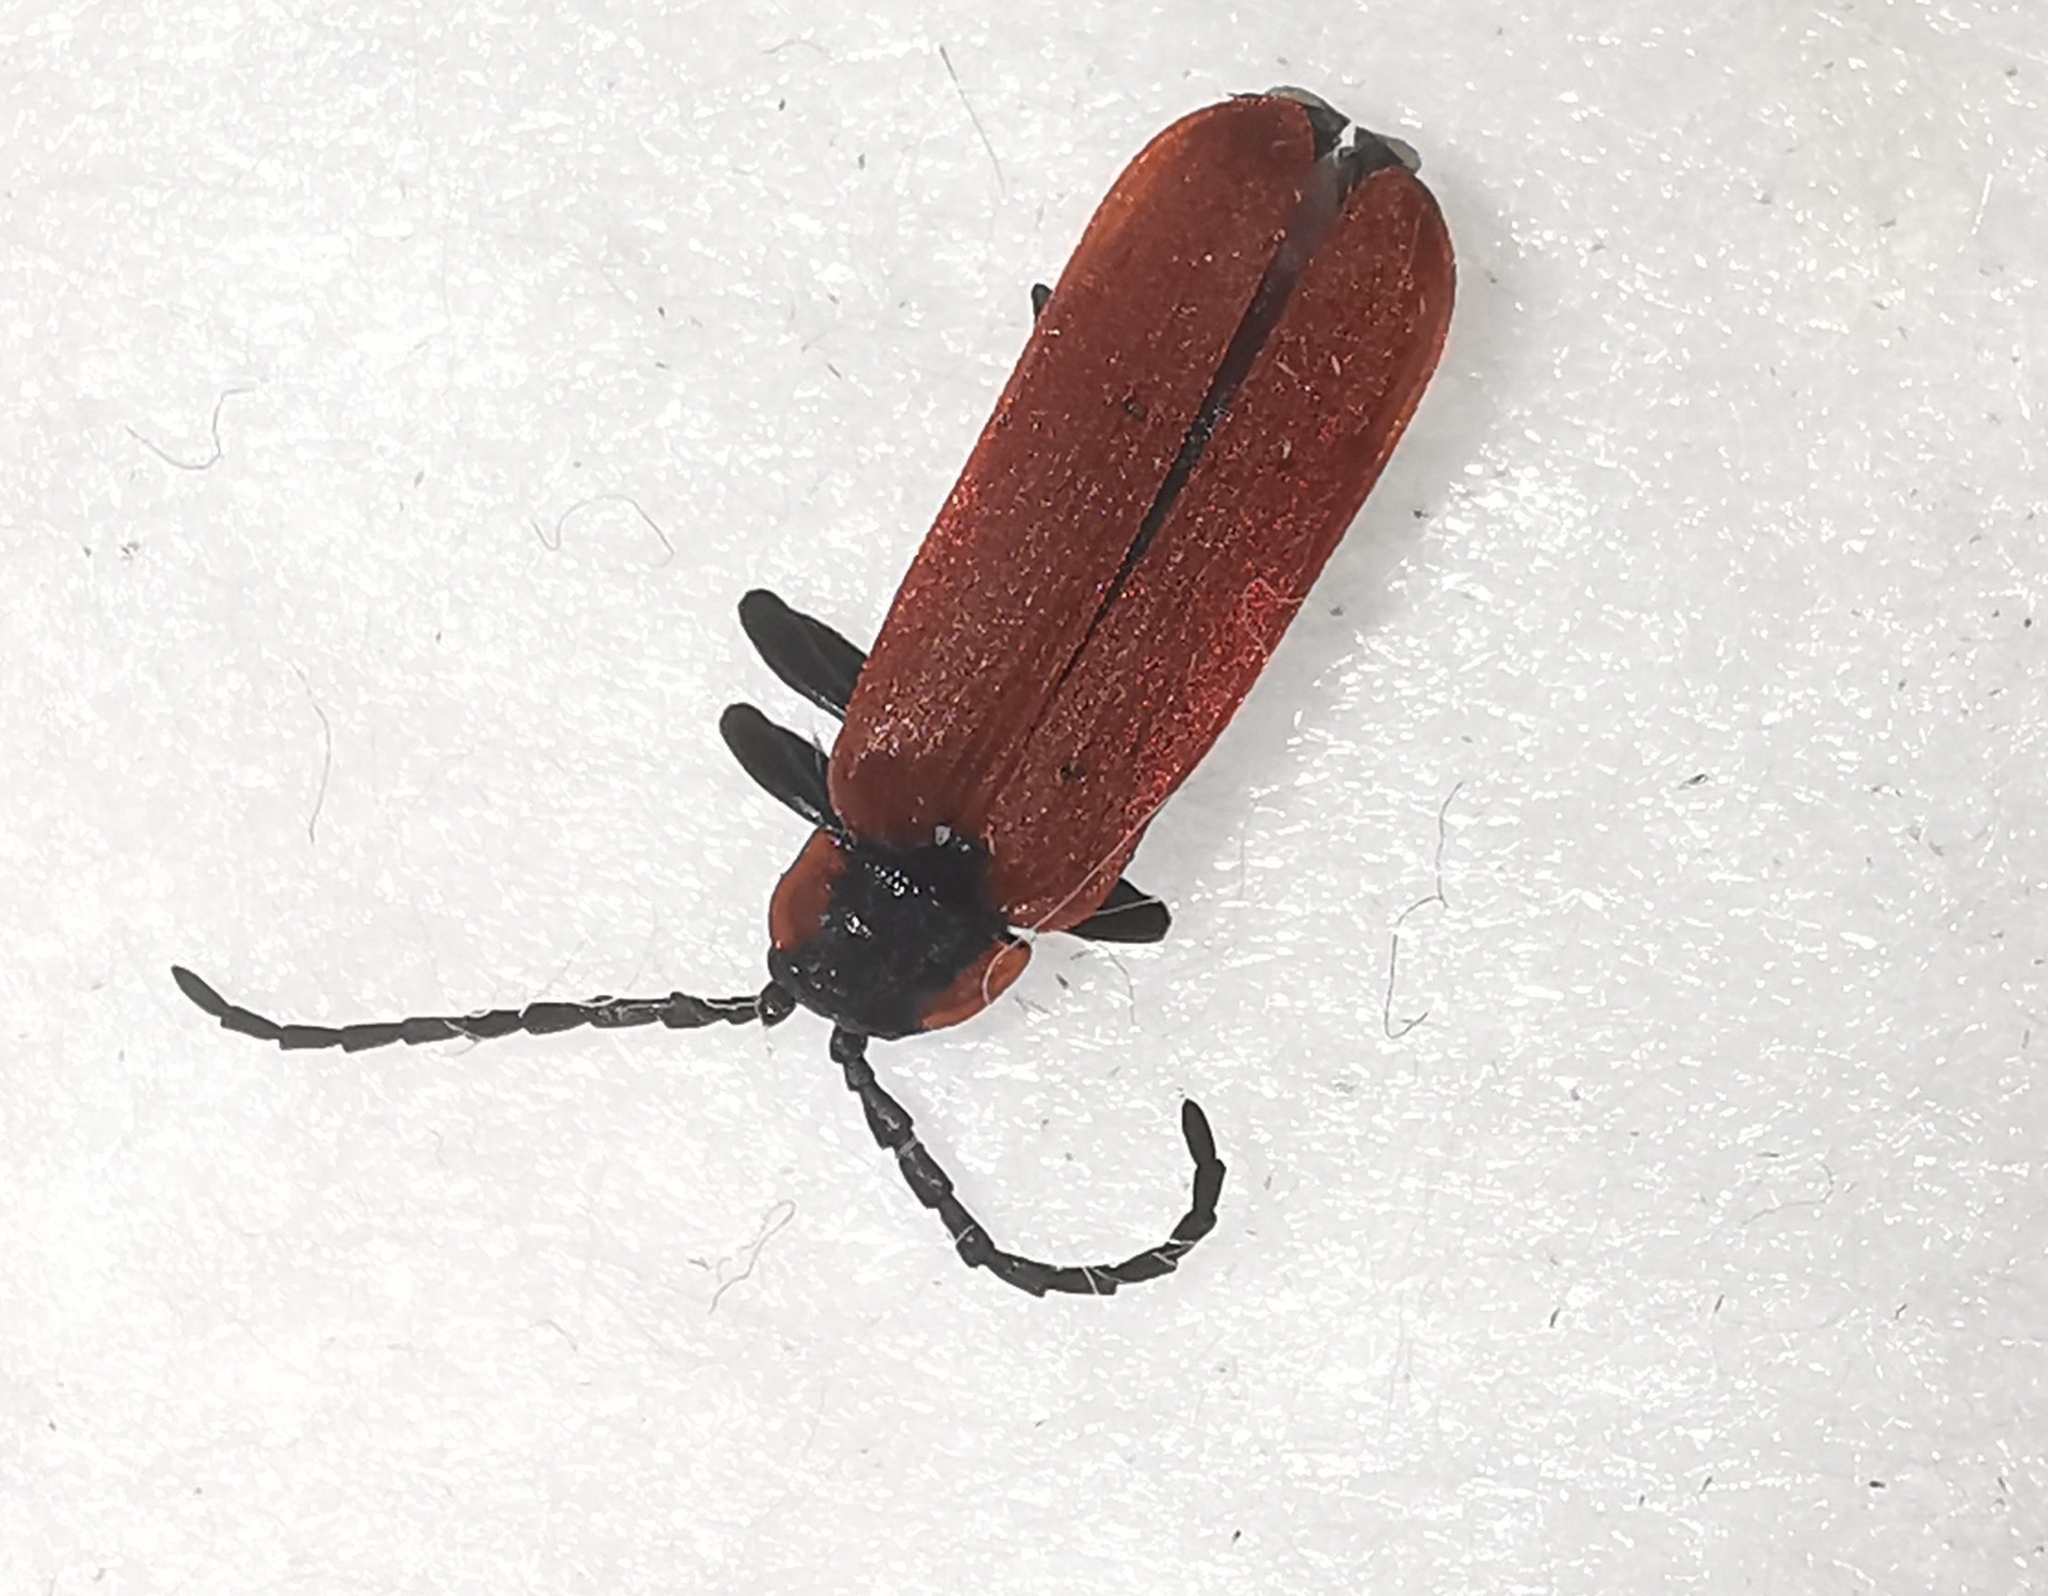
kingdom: Animalia
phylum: Arthropoda
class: Insecta
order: Coleoptera
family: Lycidae
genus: Lygistopterus
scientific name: Lygistopterus sanguineus
